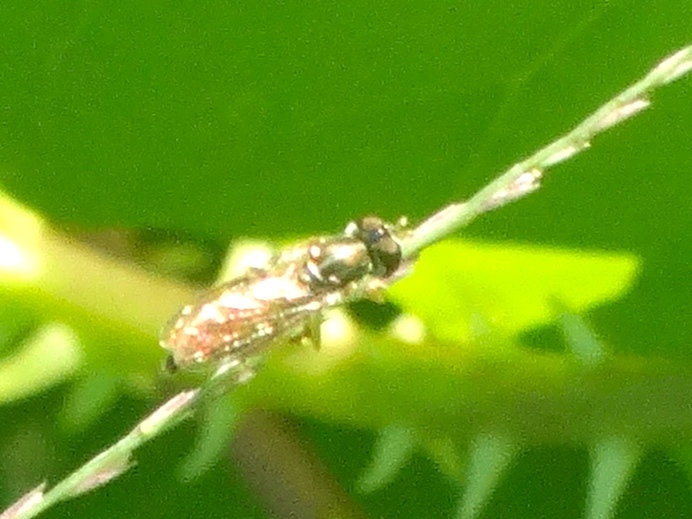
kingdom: Animalia
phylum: Arthropoda
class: Insecta
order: Diptera
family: Syrphidae
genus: Toxomerus
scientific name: Toxomerus
